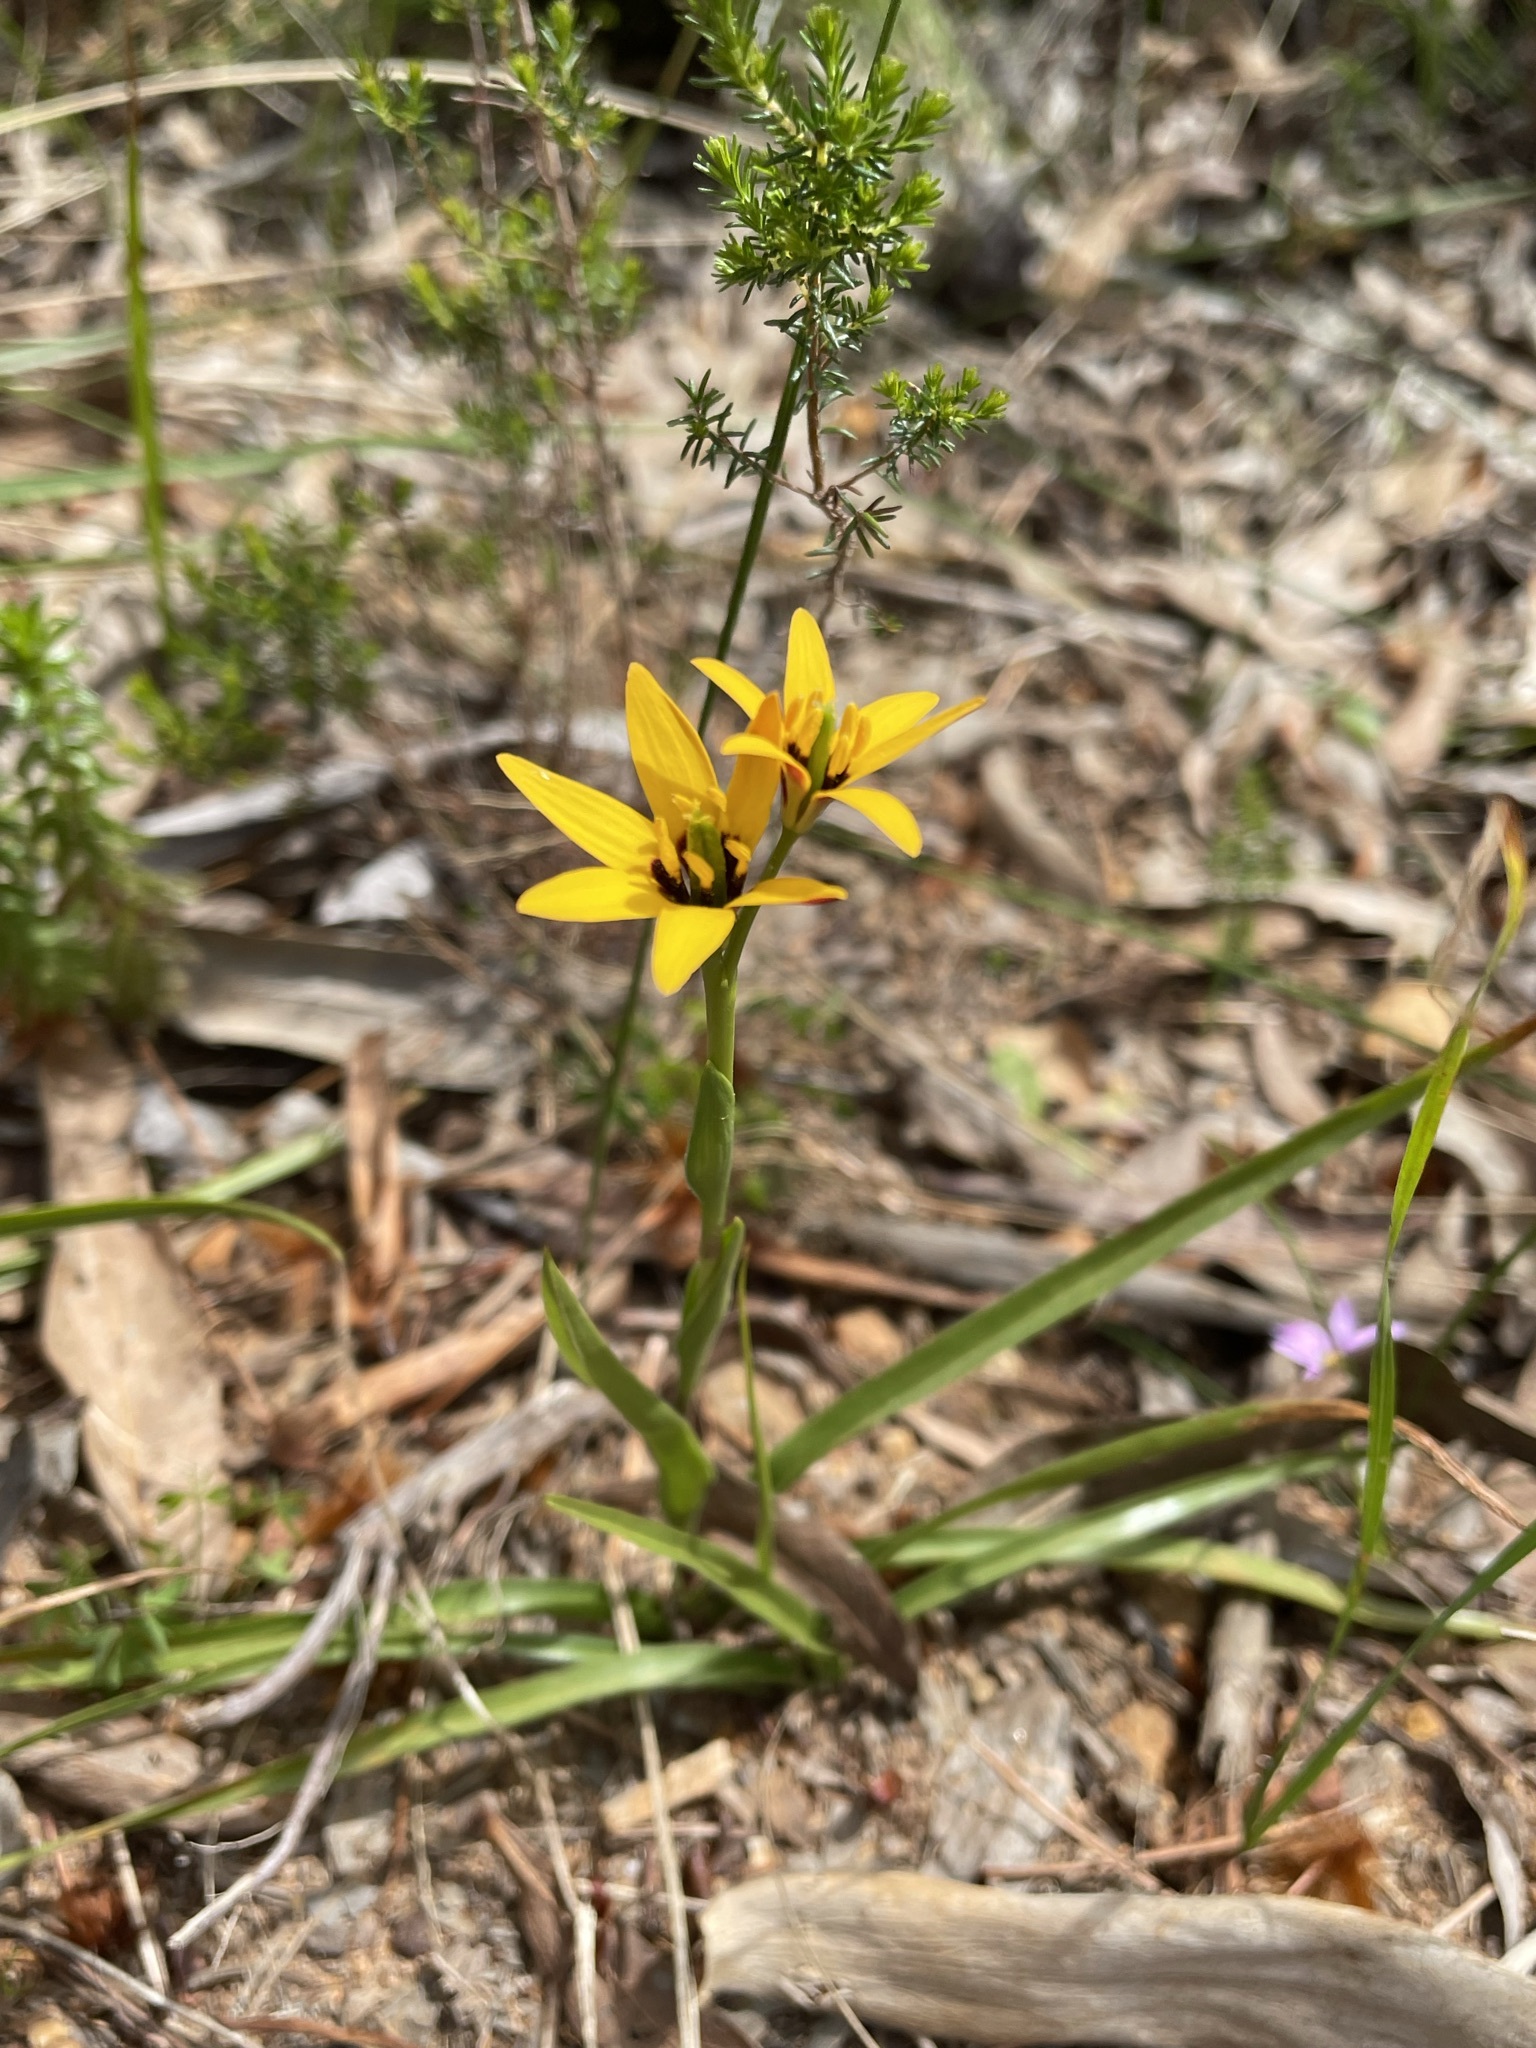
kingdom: Plantae
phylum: Tracheophyta
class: Liliopsida
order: Liliales
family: Colchicaceae
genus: Baeometra
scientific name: Baeometra uniflora
